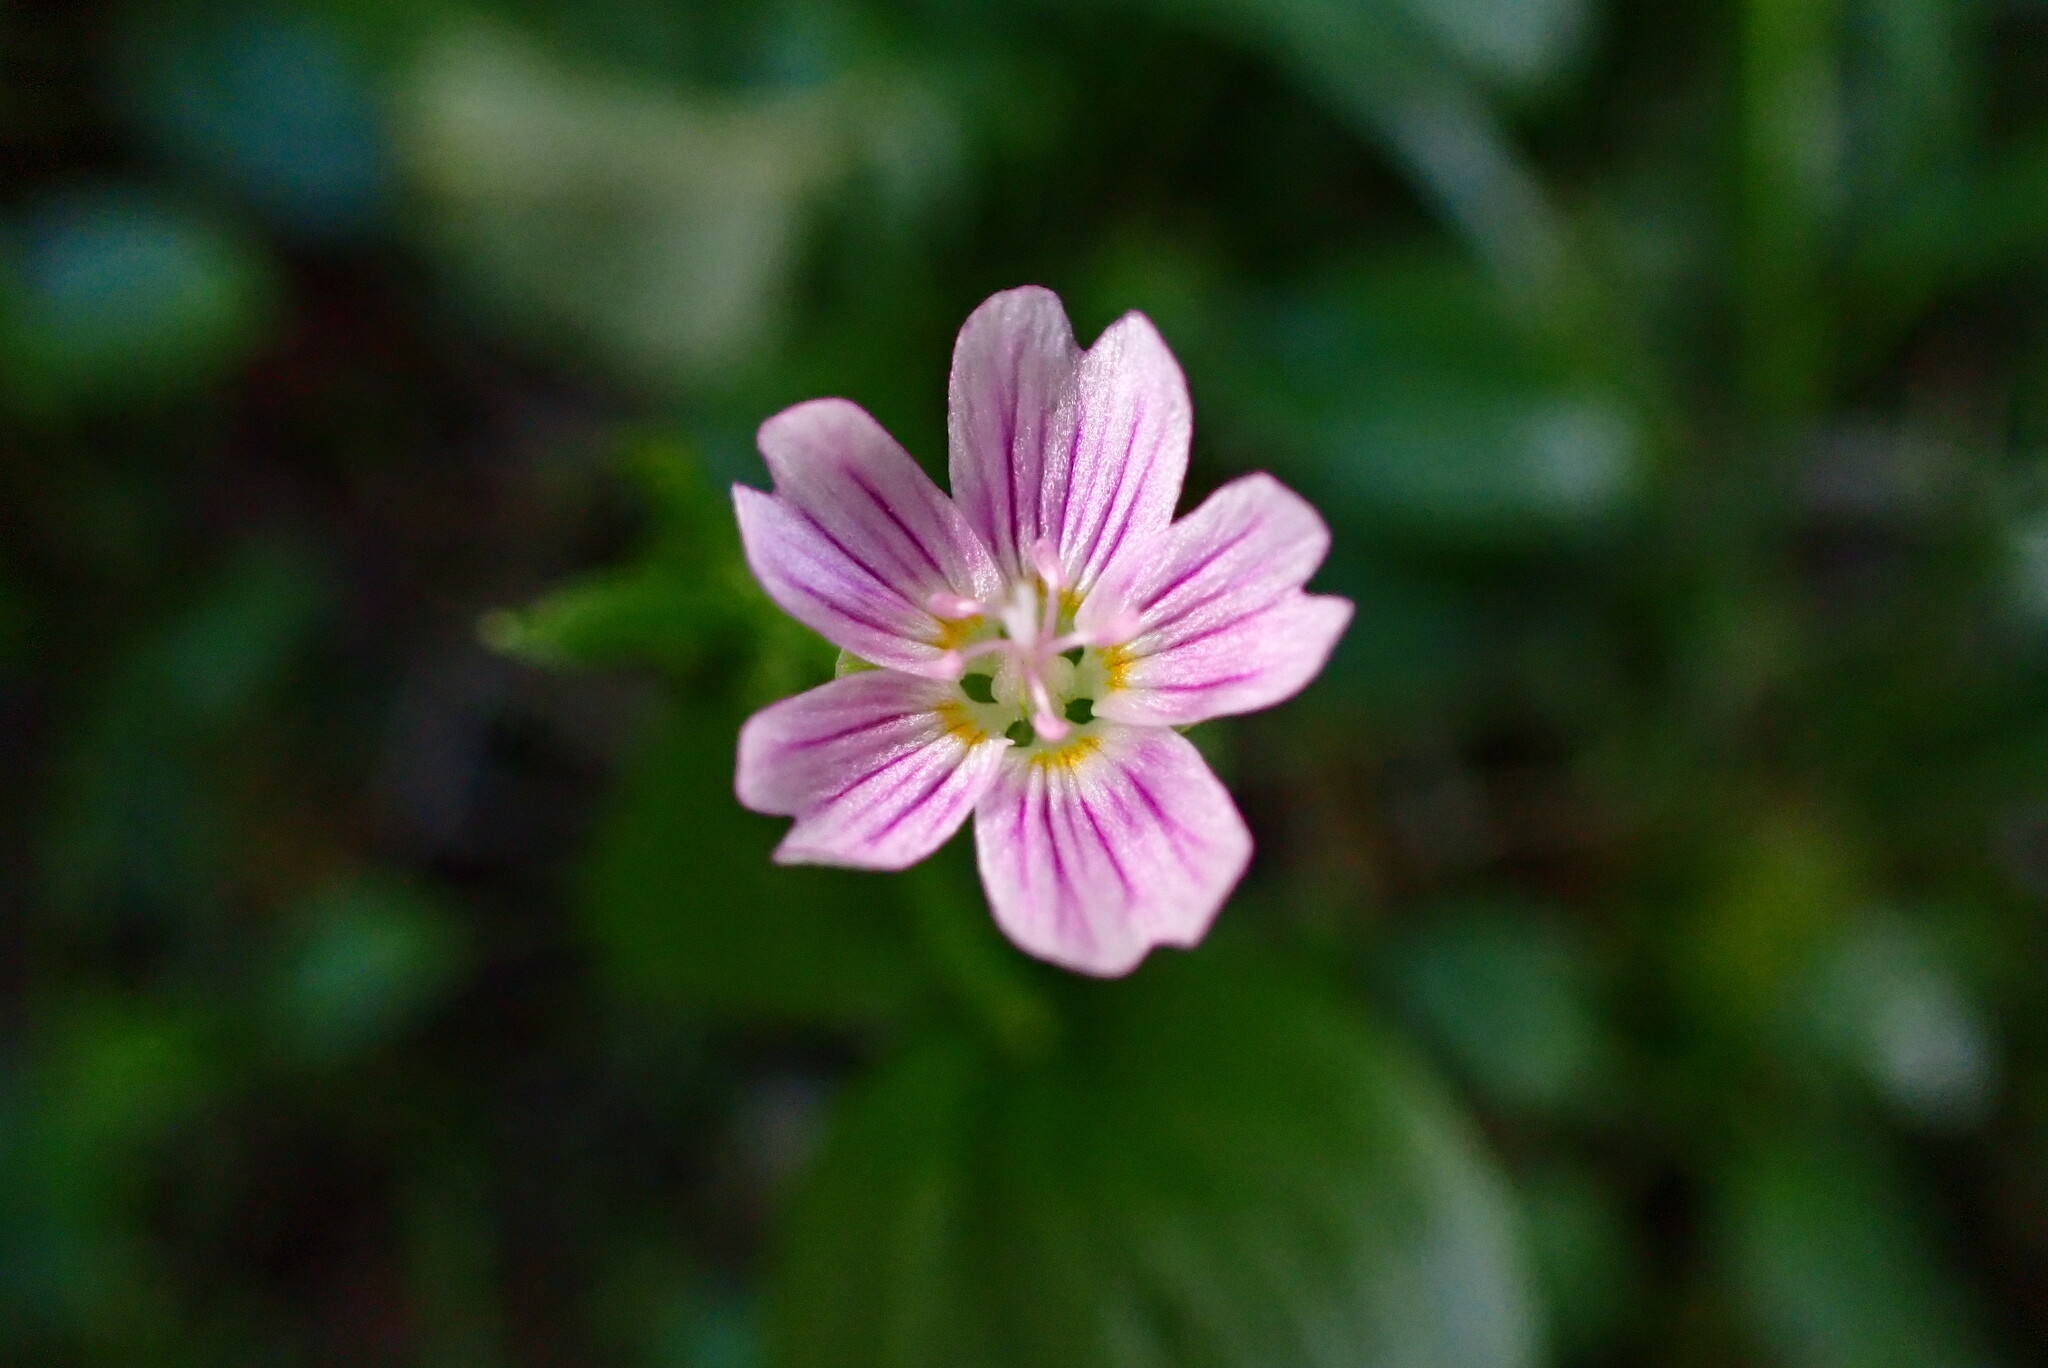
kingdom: Plantae
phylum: Tracheophyta
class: Magnoliopsida
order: Caryophyllales
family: Montiaceae
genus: Claytonia
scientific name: Claytonia sibirica
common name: Pink purslane
